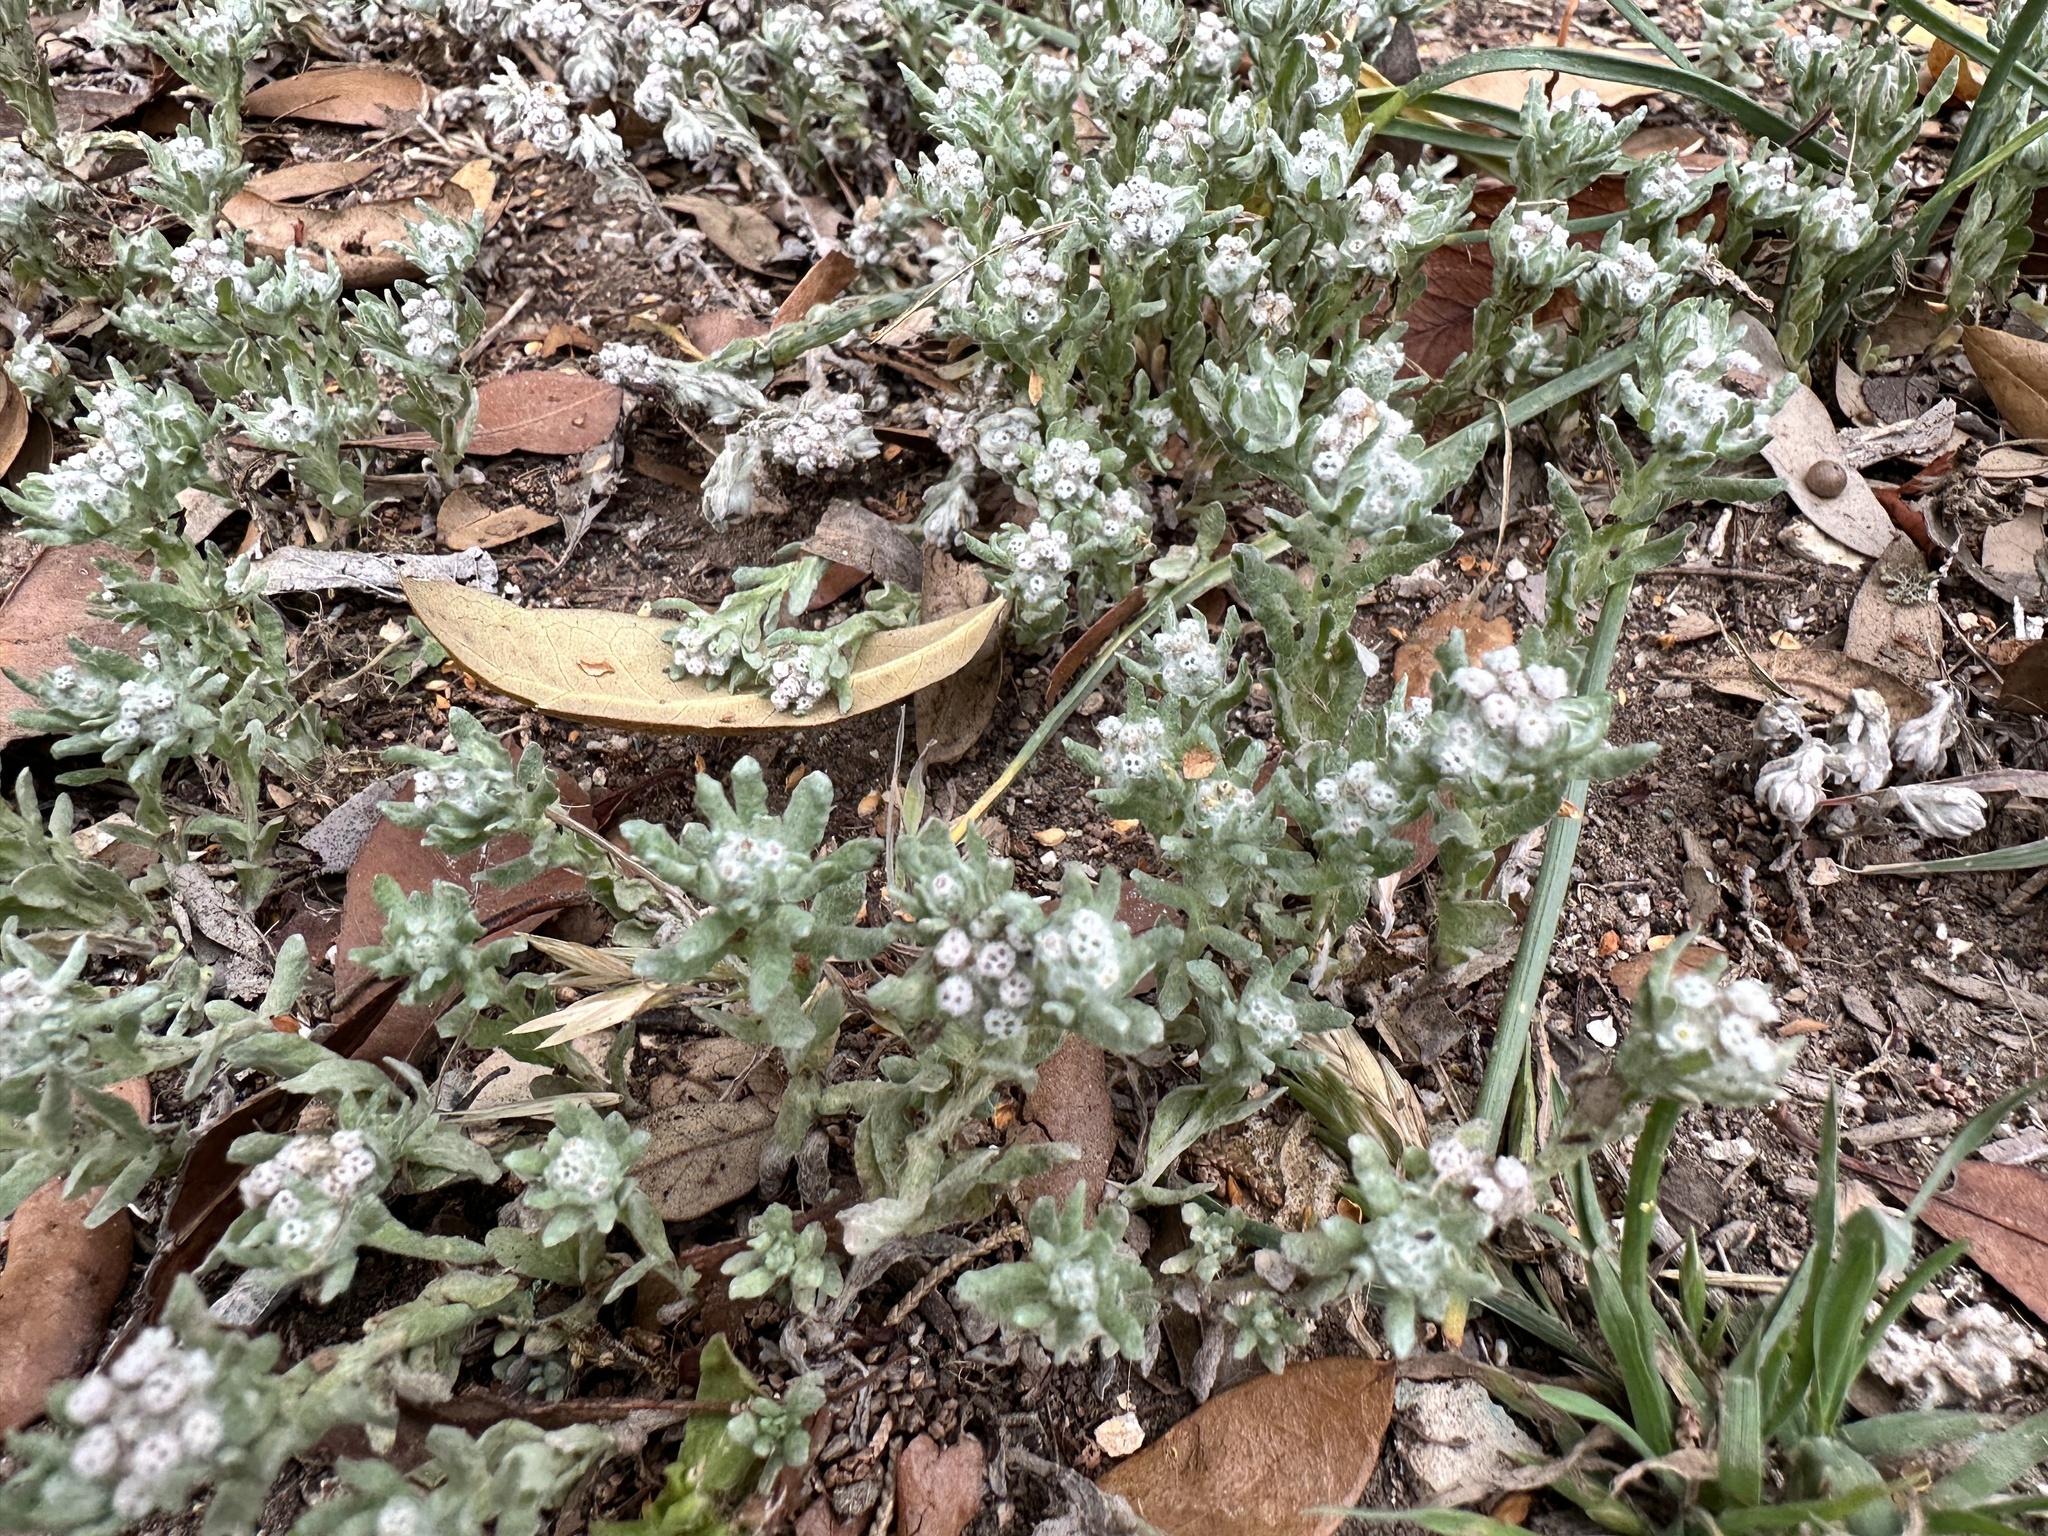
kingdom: Plantae
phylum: Tracheophyta
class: Magnoliopsida
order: Asterales
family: Asteraceae
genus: Diaperia
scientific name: Diaperia verna
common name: Many-stem rabbit-tobacco
